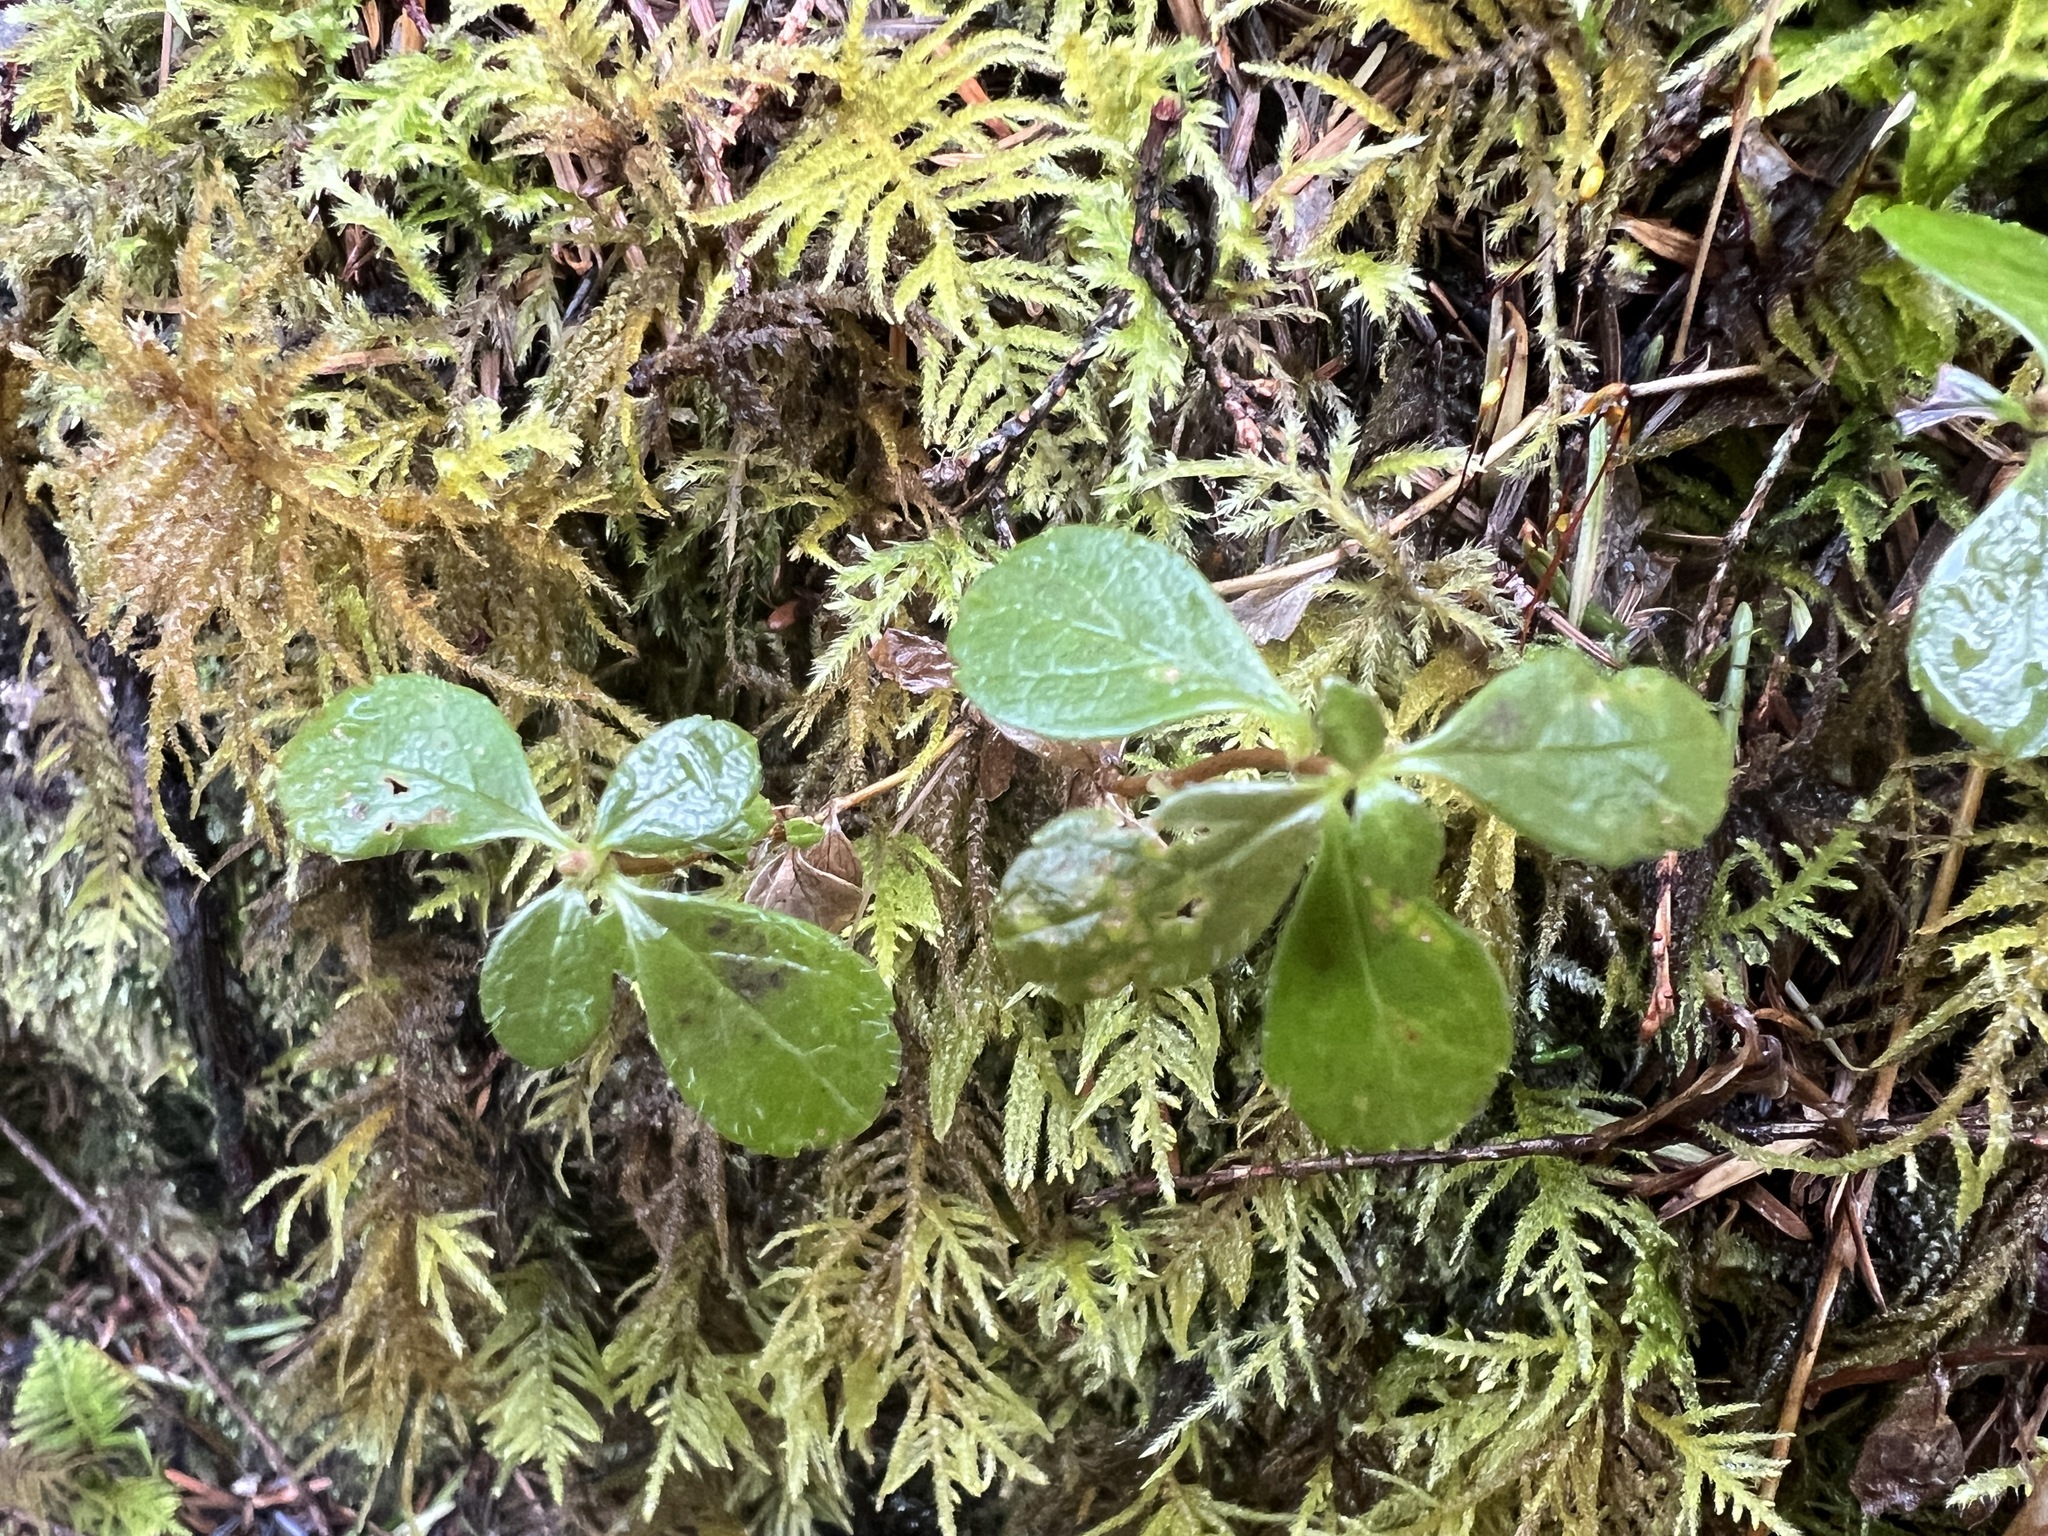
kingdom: Plantae
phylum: Tracheophyta
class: Magnoliopsida
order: Dipsacales
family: Caprifoliaceae
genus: Linnaea
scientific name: Linnaea borealis
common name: Twinflower
